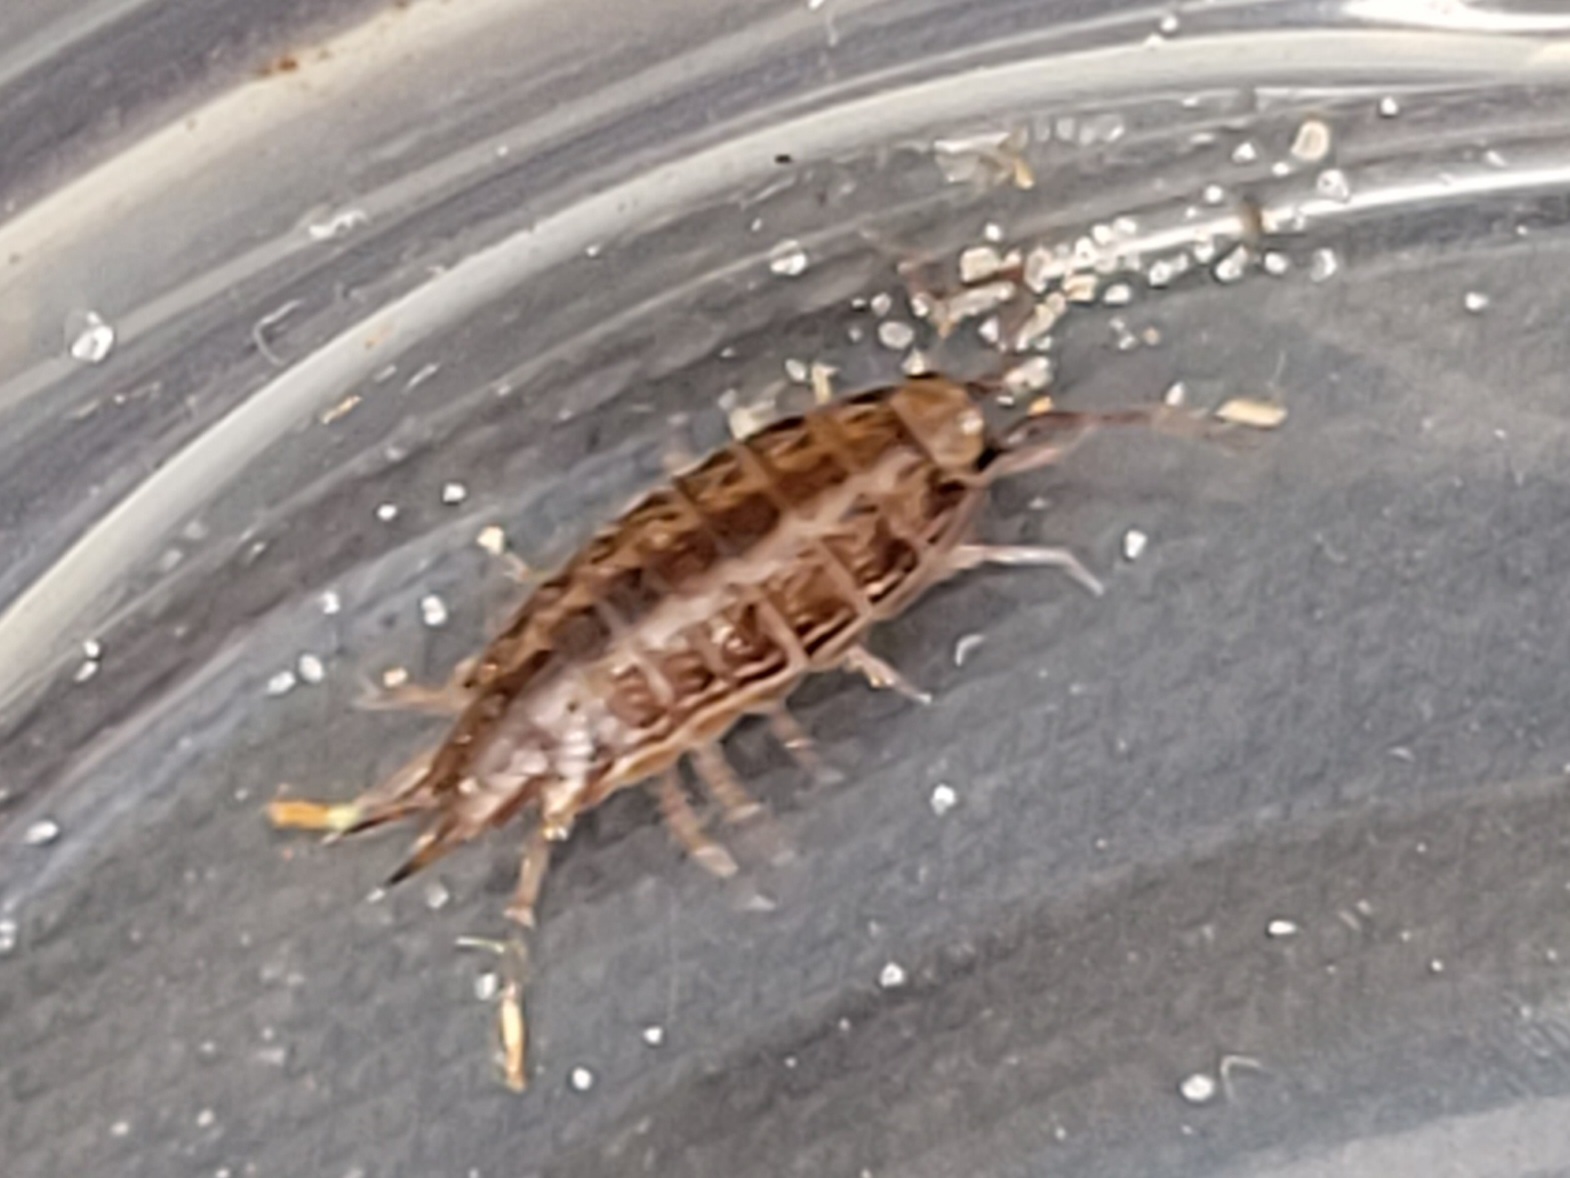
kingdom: Animalia
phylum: Arthropoda
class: Malacostraca
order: Isopoda
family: Philosciidae
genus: Atlantoscia
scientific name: Atlantoscia floridana
